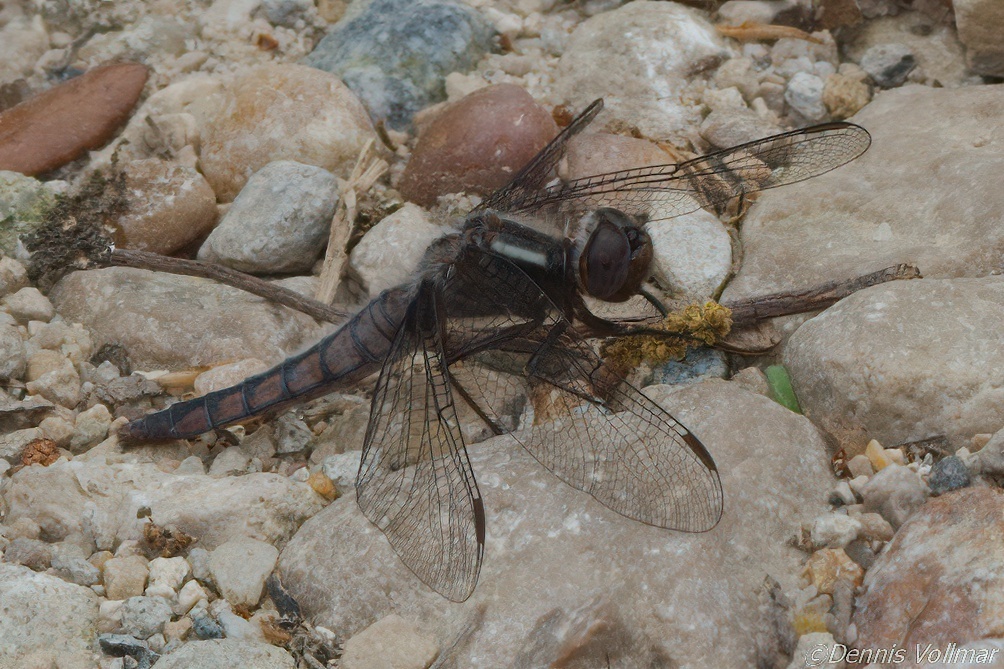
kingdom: Animalia
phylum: Arthropoda
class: Insecta
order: Odonata
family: Libellulidae
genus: Ladona
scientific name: Ladona deplanata
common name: Blue corporal
